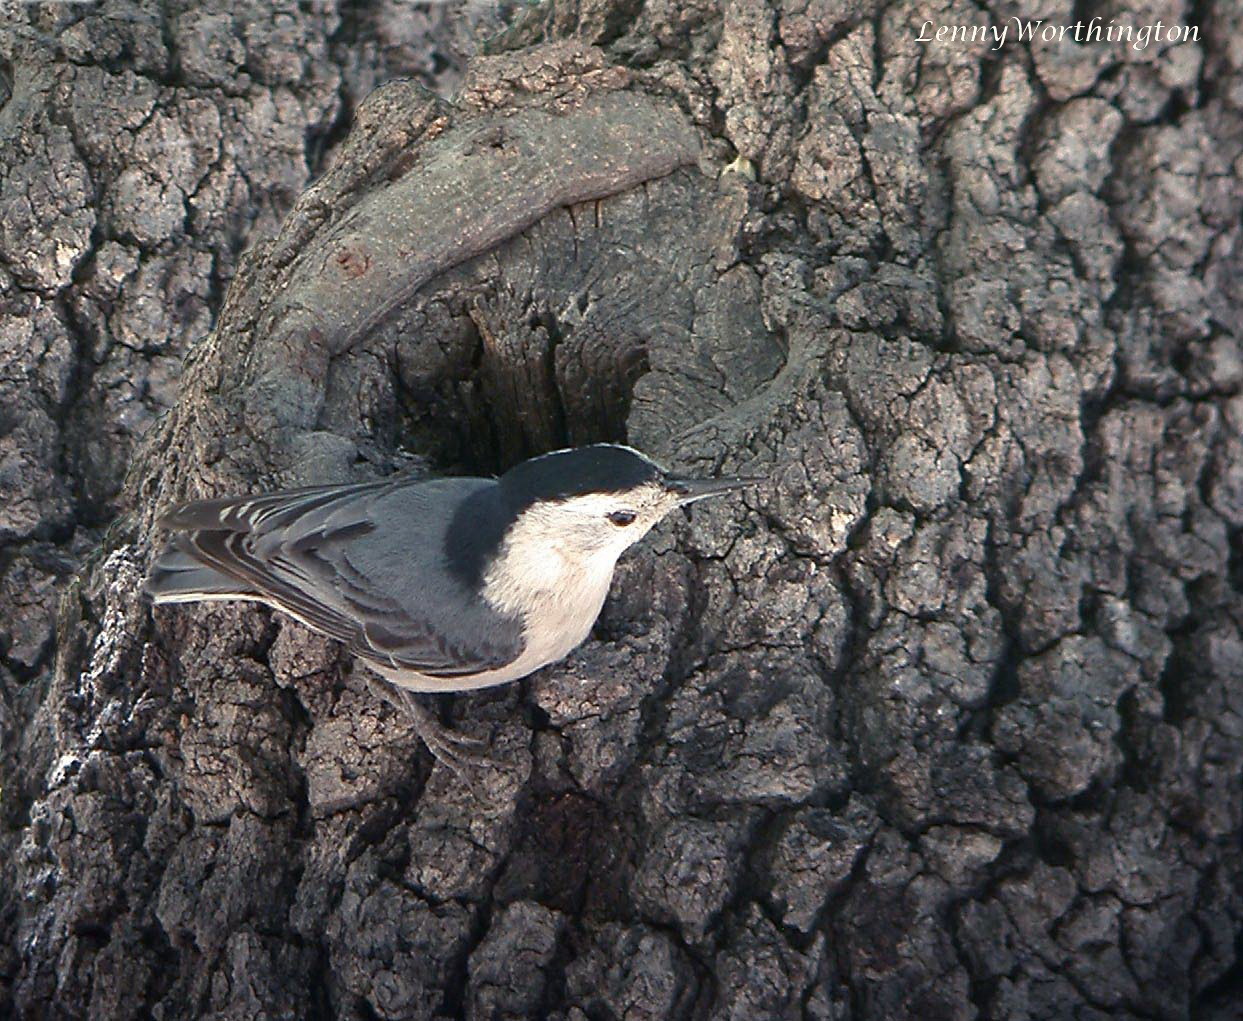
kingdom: Animalia
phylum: Chordata
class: Aves
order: Passeriformes
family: Sittidae
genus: Sitta
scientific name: Sitta carolinensis
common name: White-breasted nuthatch
